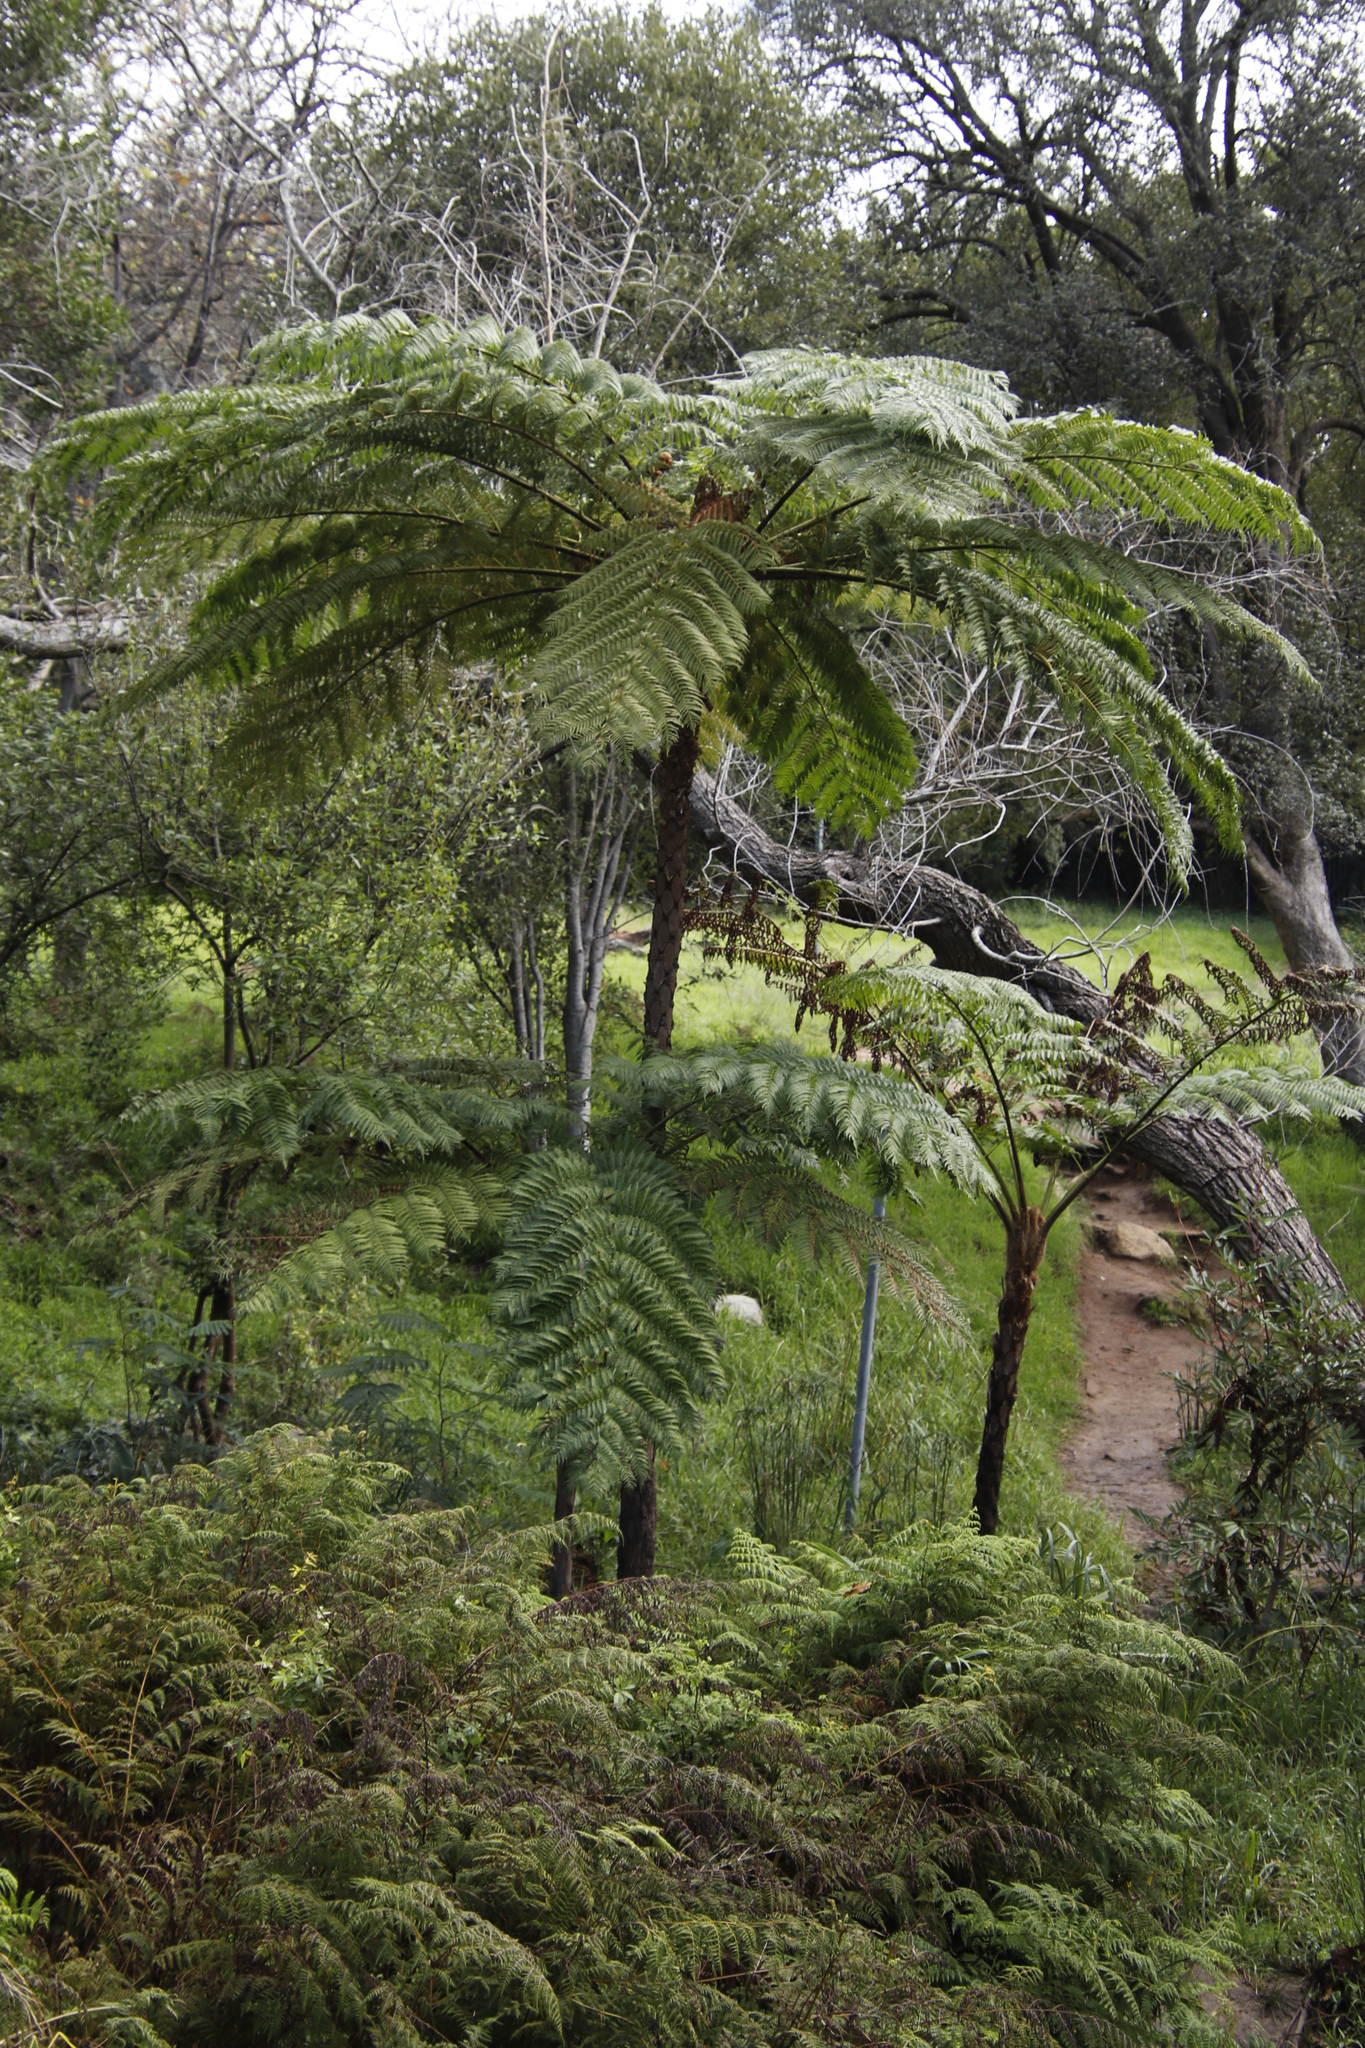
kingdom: Plantae
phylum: Tracheophyta
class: Polypodiopsida
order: Cyatheales
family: Cyatheaceae
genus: Sphaeropteris
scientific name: Sphaeropteris cooperi
